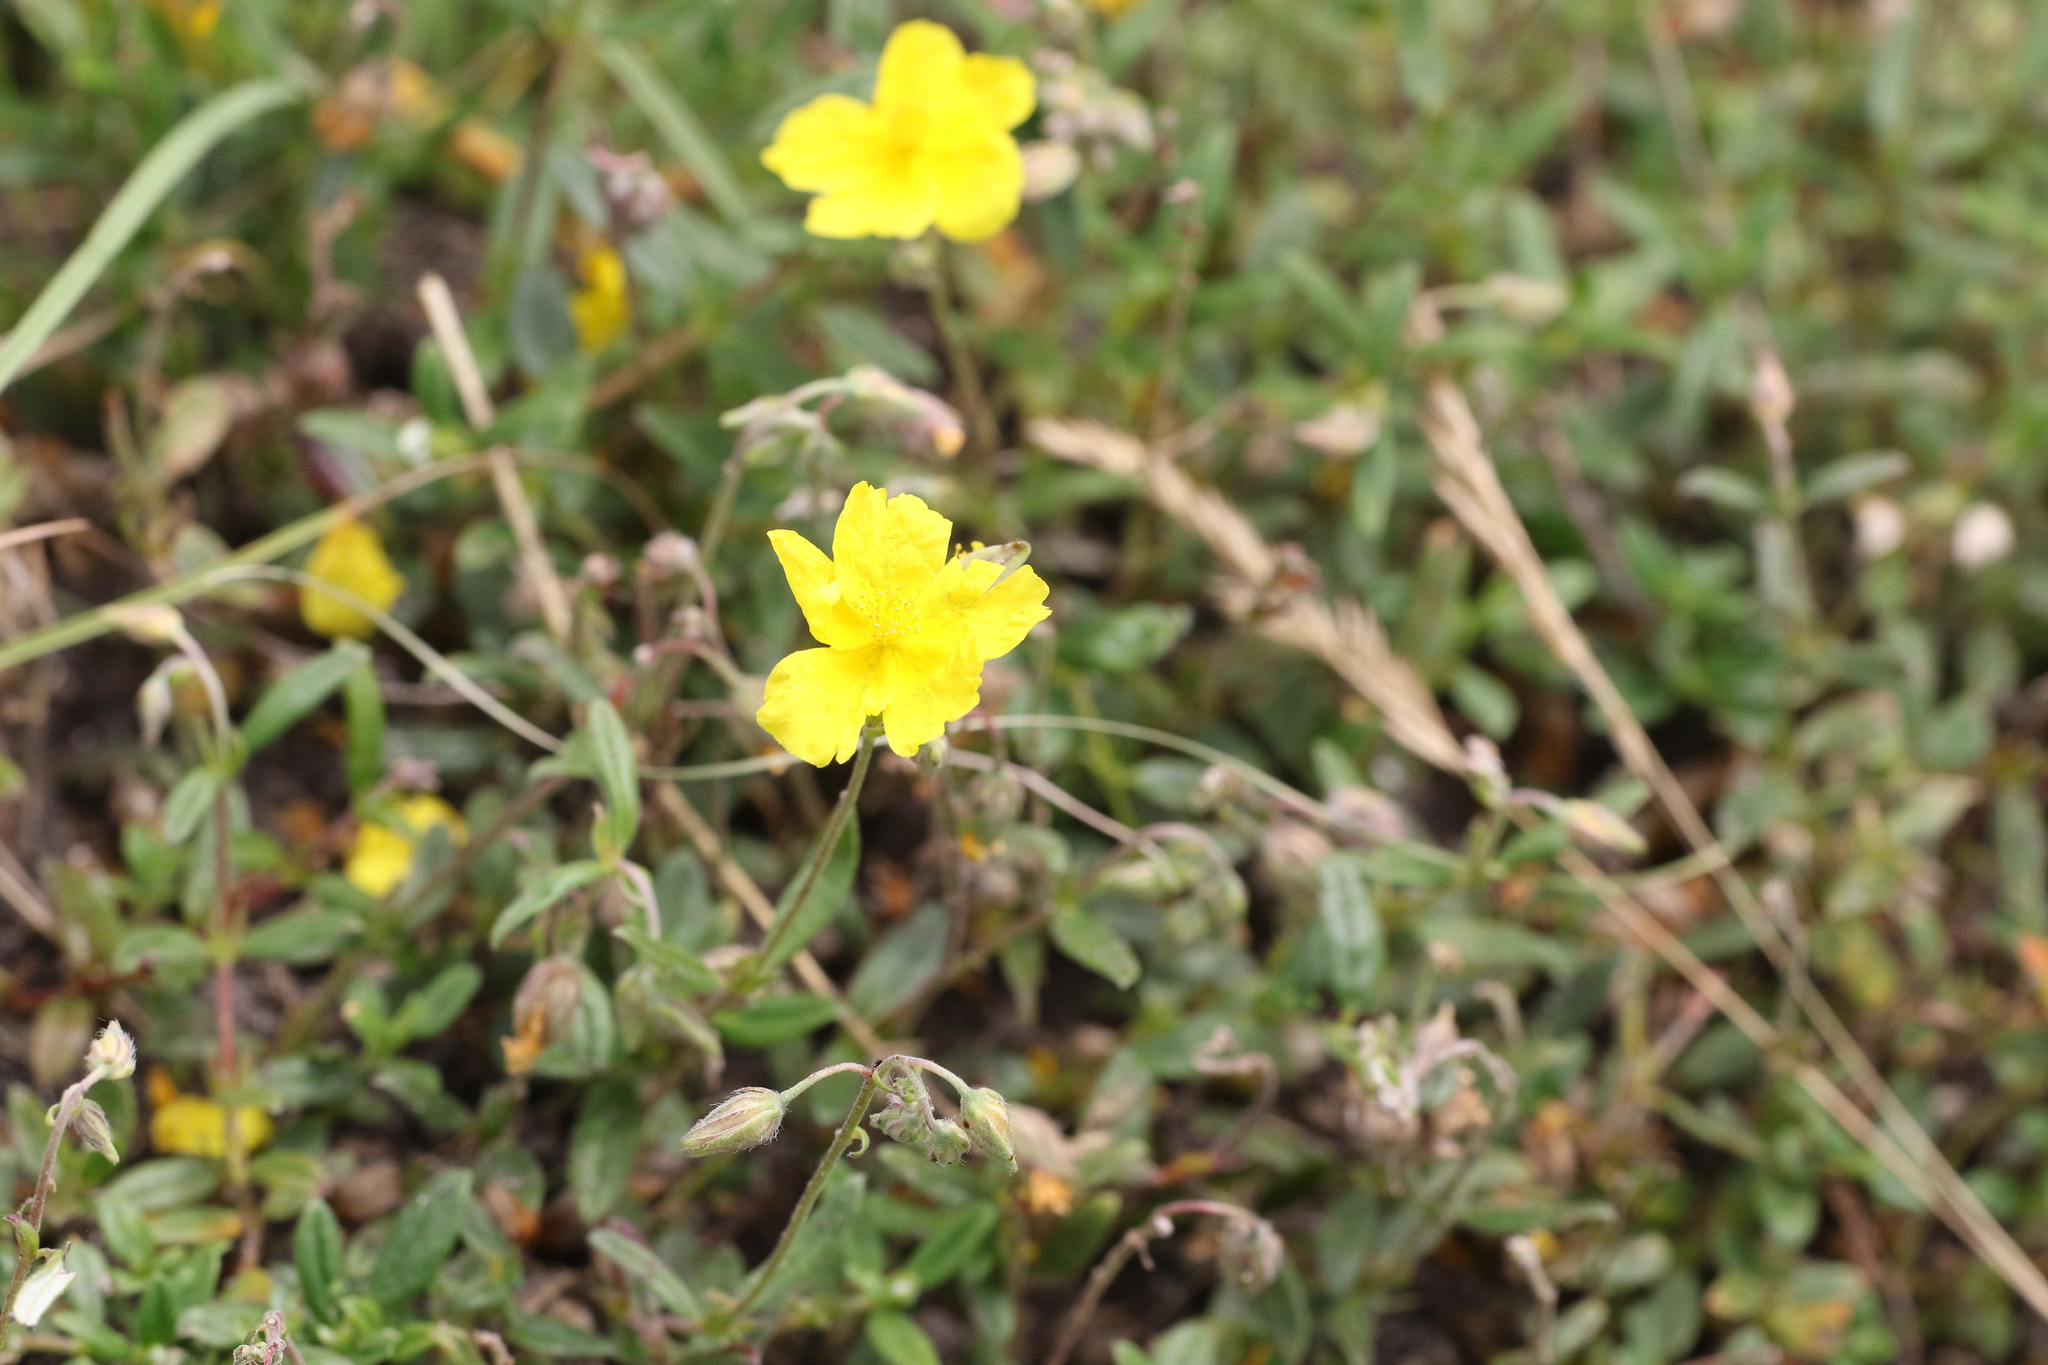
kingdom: Plantae
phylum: Tracheophyta
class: Magnoliopsida
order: Malvales
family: Cistaceae
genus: Helianthemum
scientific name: Helianthemum nummularium
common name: Common rock-rose
